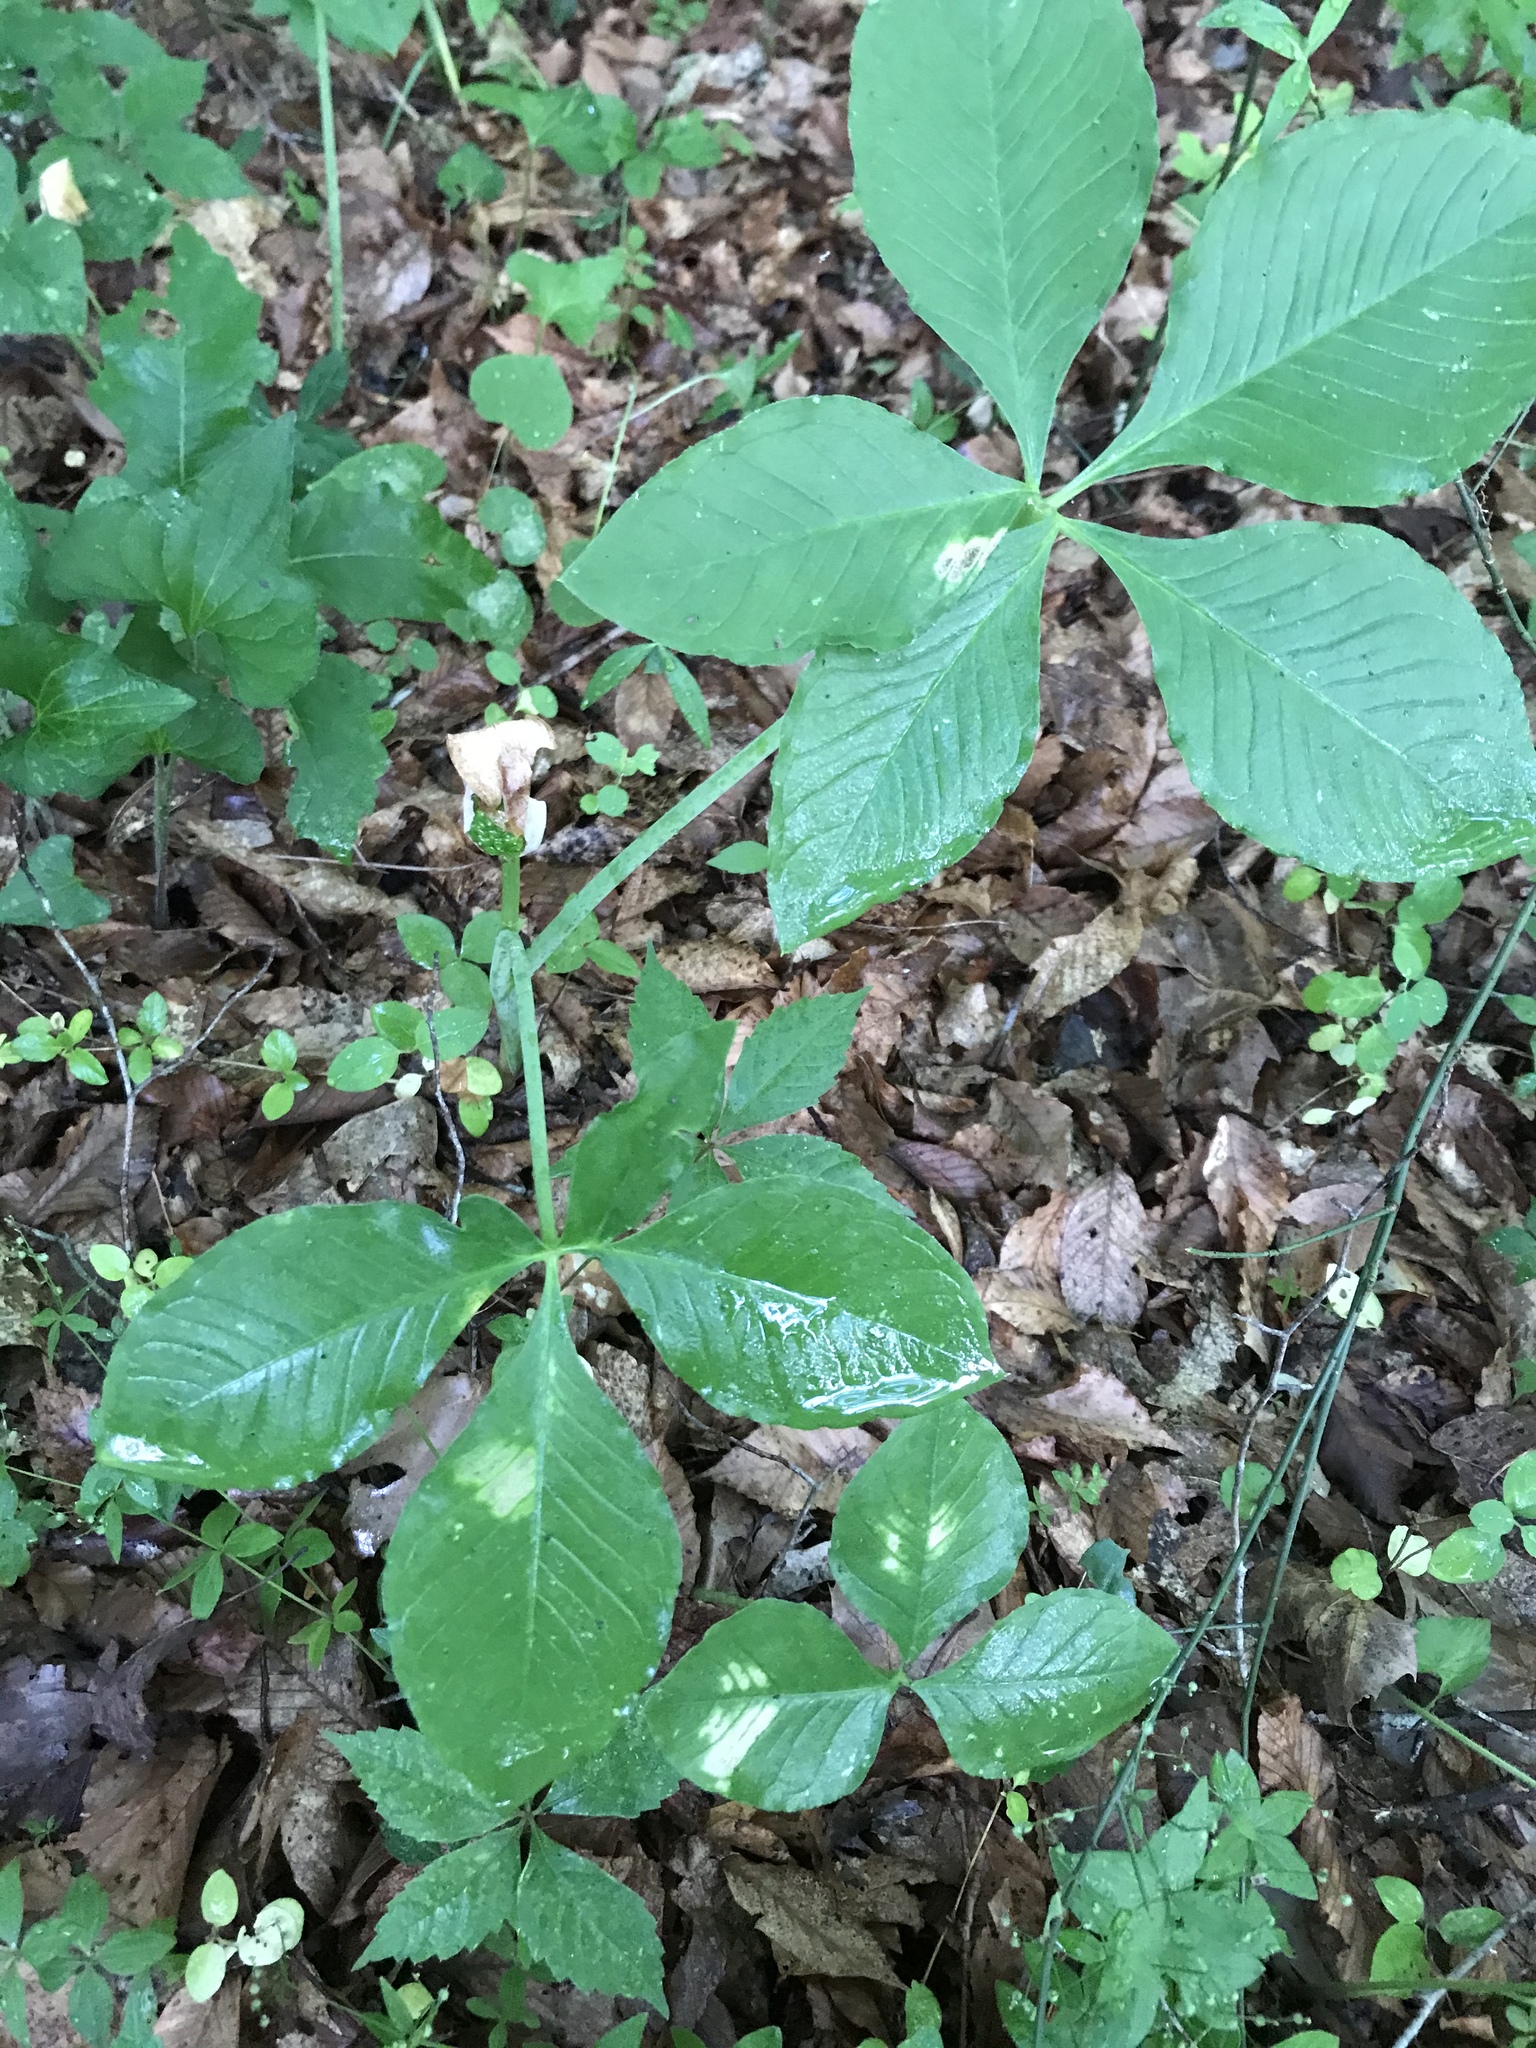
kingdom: Plantae
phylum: Tracheophyta
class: Liliopsida
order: Alismatales
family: Araceae
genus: Arisaema
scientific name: Arisaema quinatum
